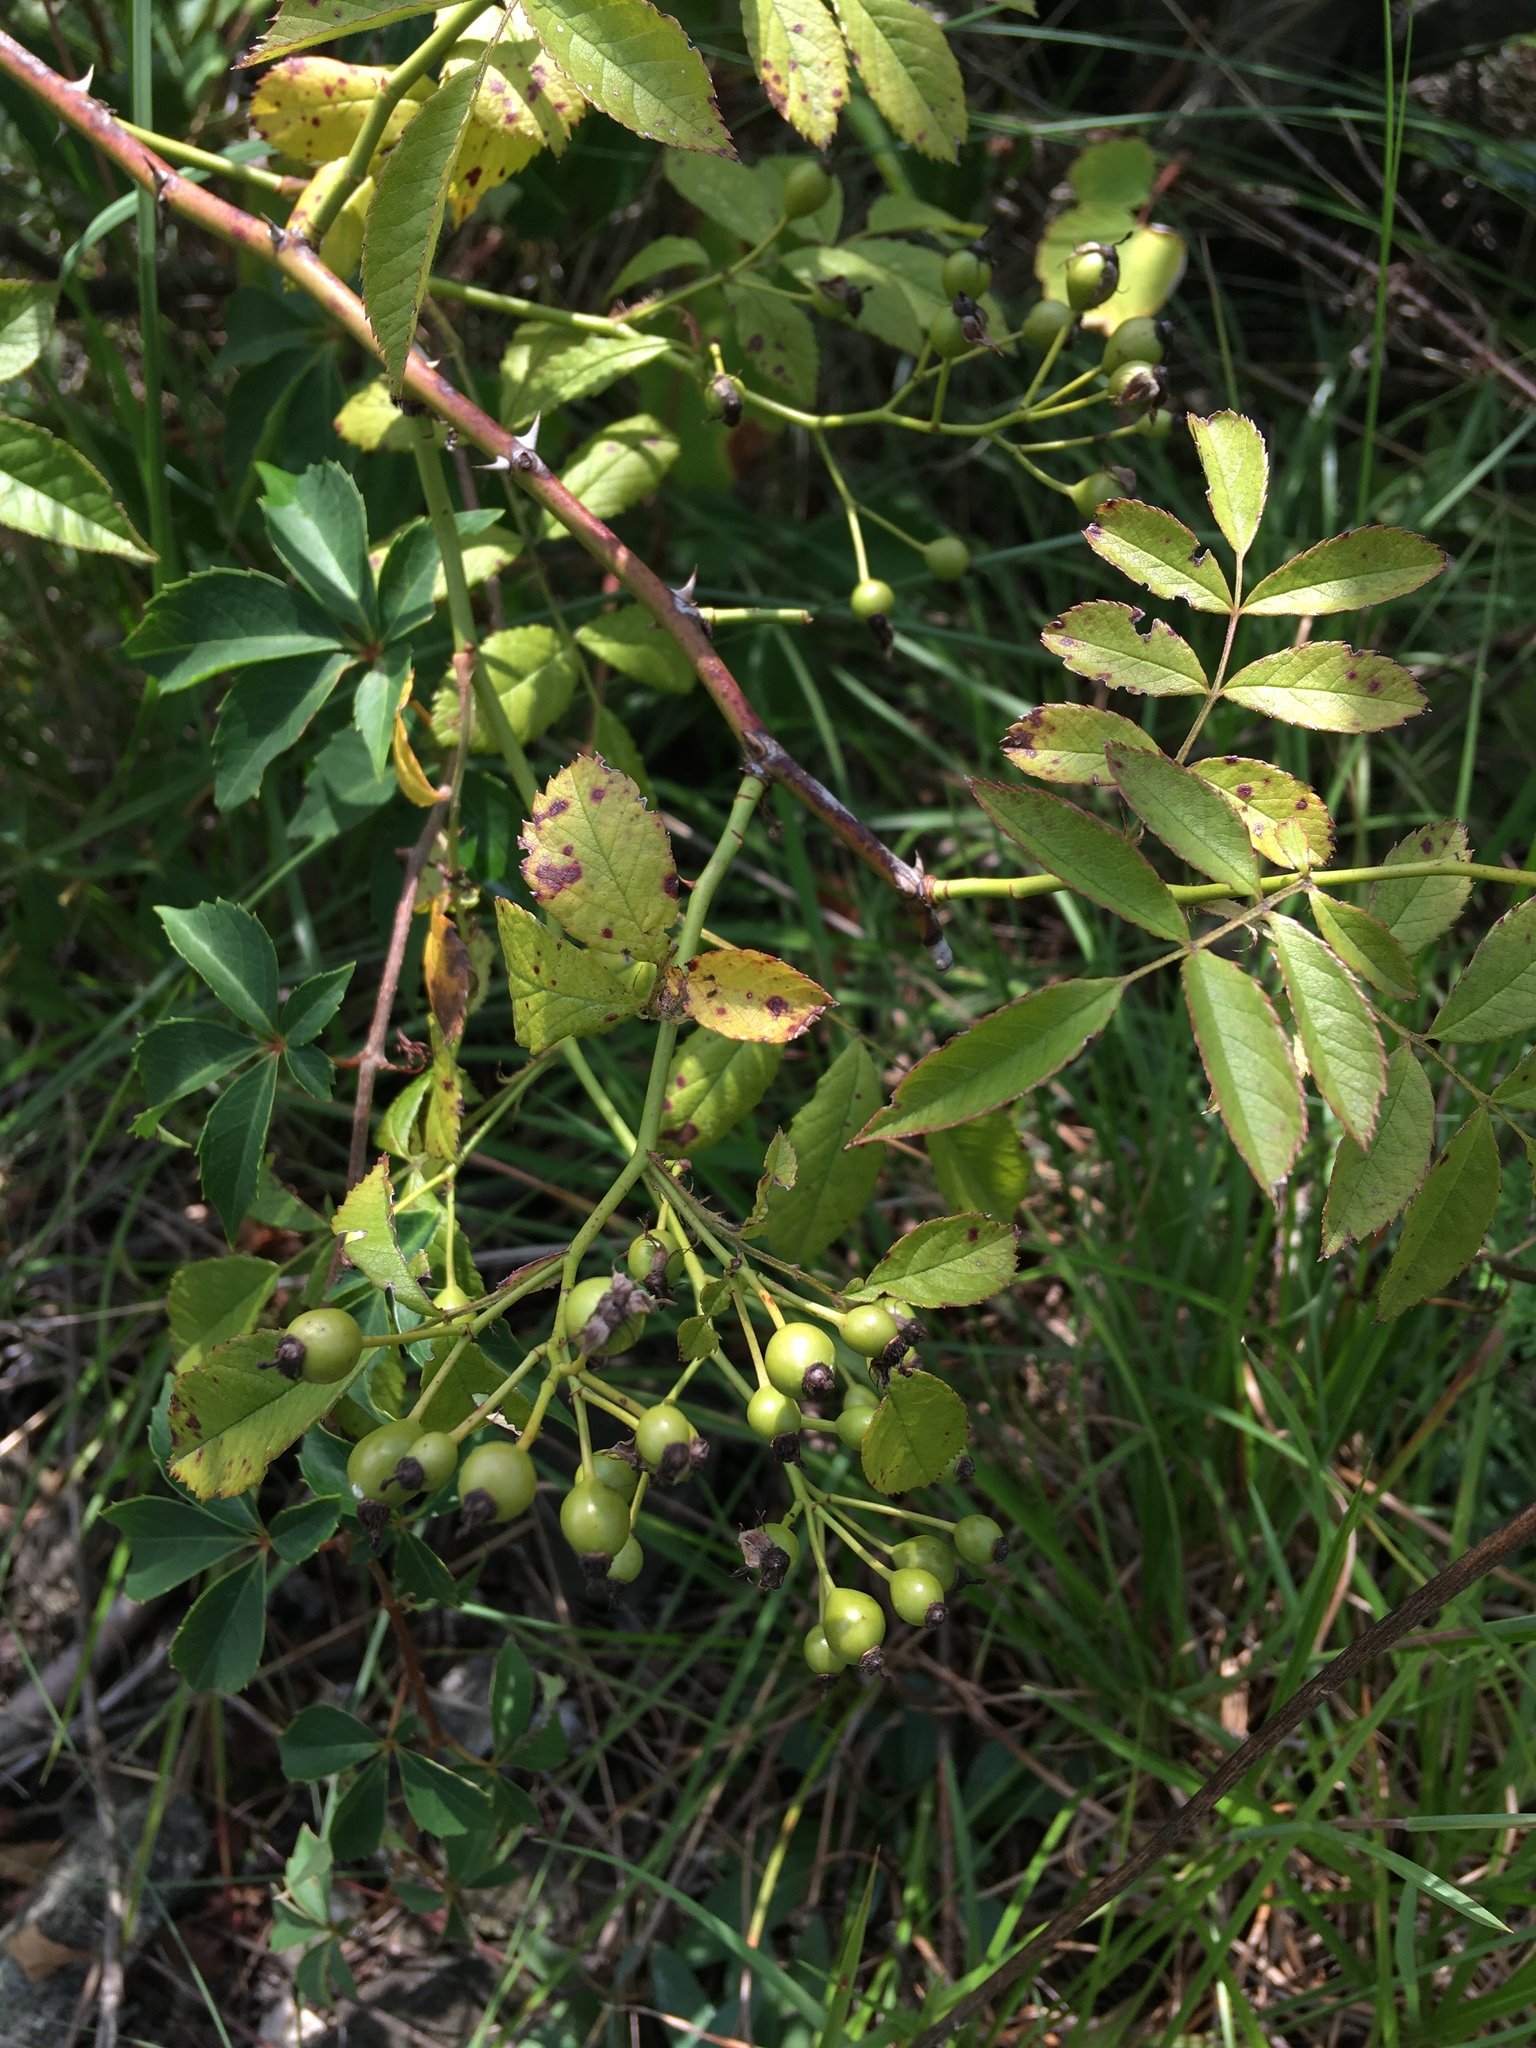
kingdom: Plantae
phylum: Tracheophyta
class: Magnoliopsida
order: Rosales
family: Rosaceae
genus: Rosa
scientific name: Rosa multiflora
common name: Multiflora rose
